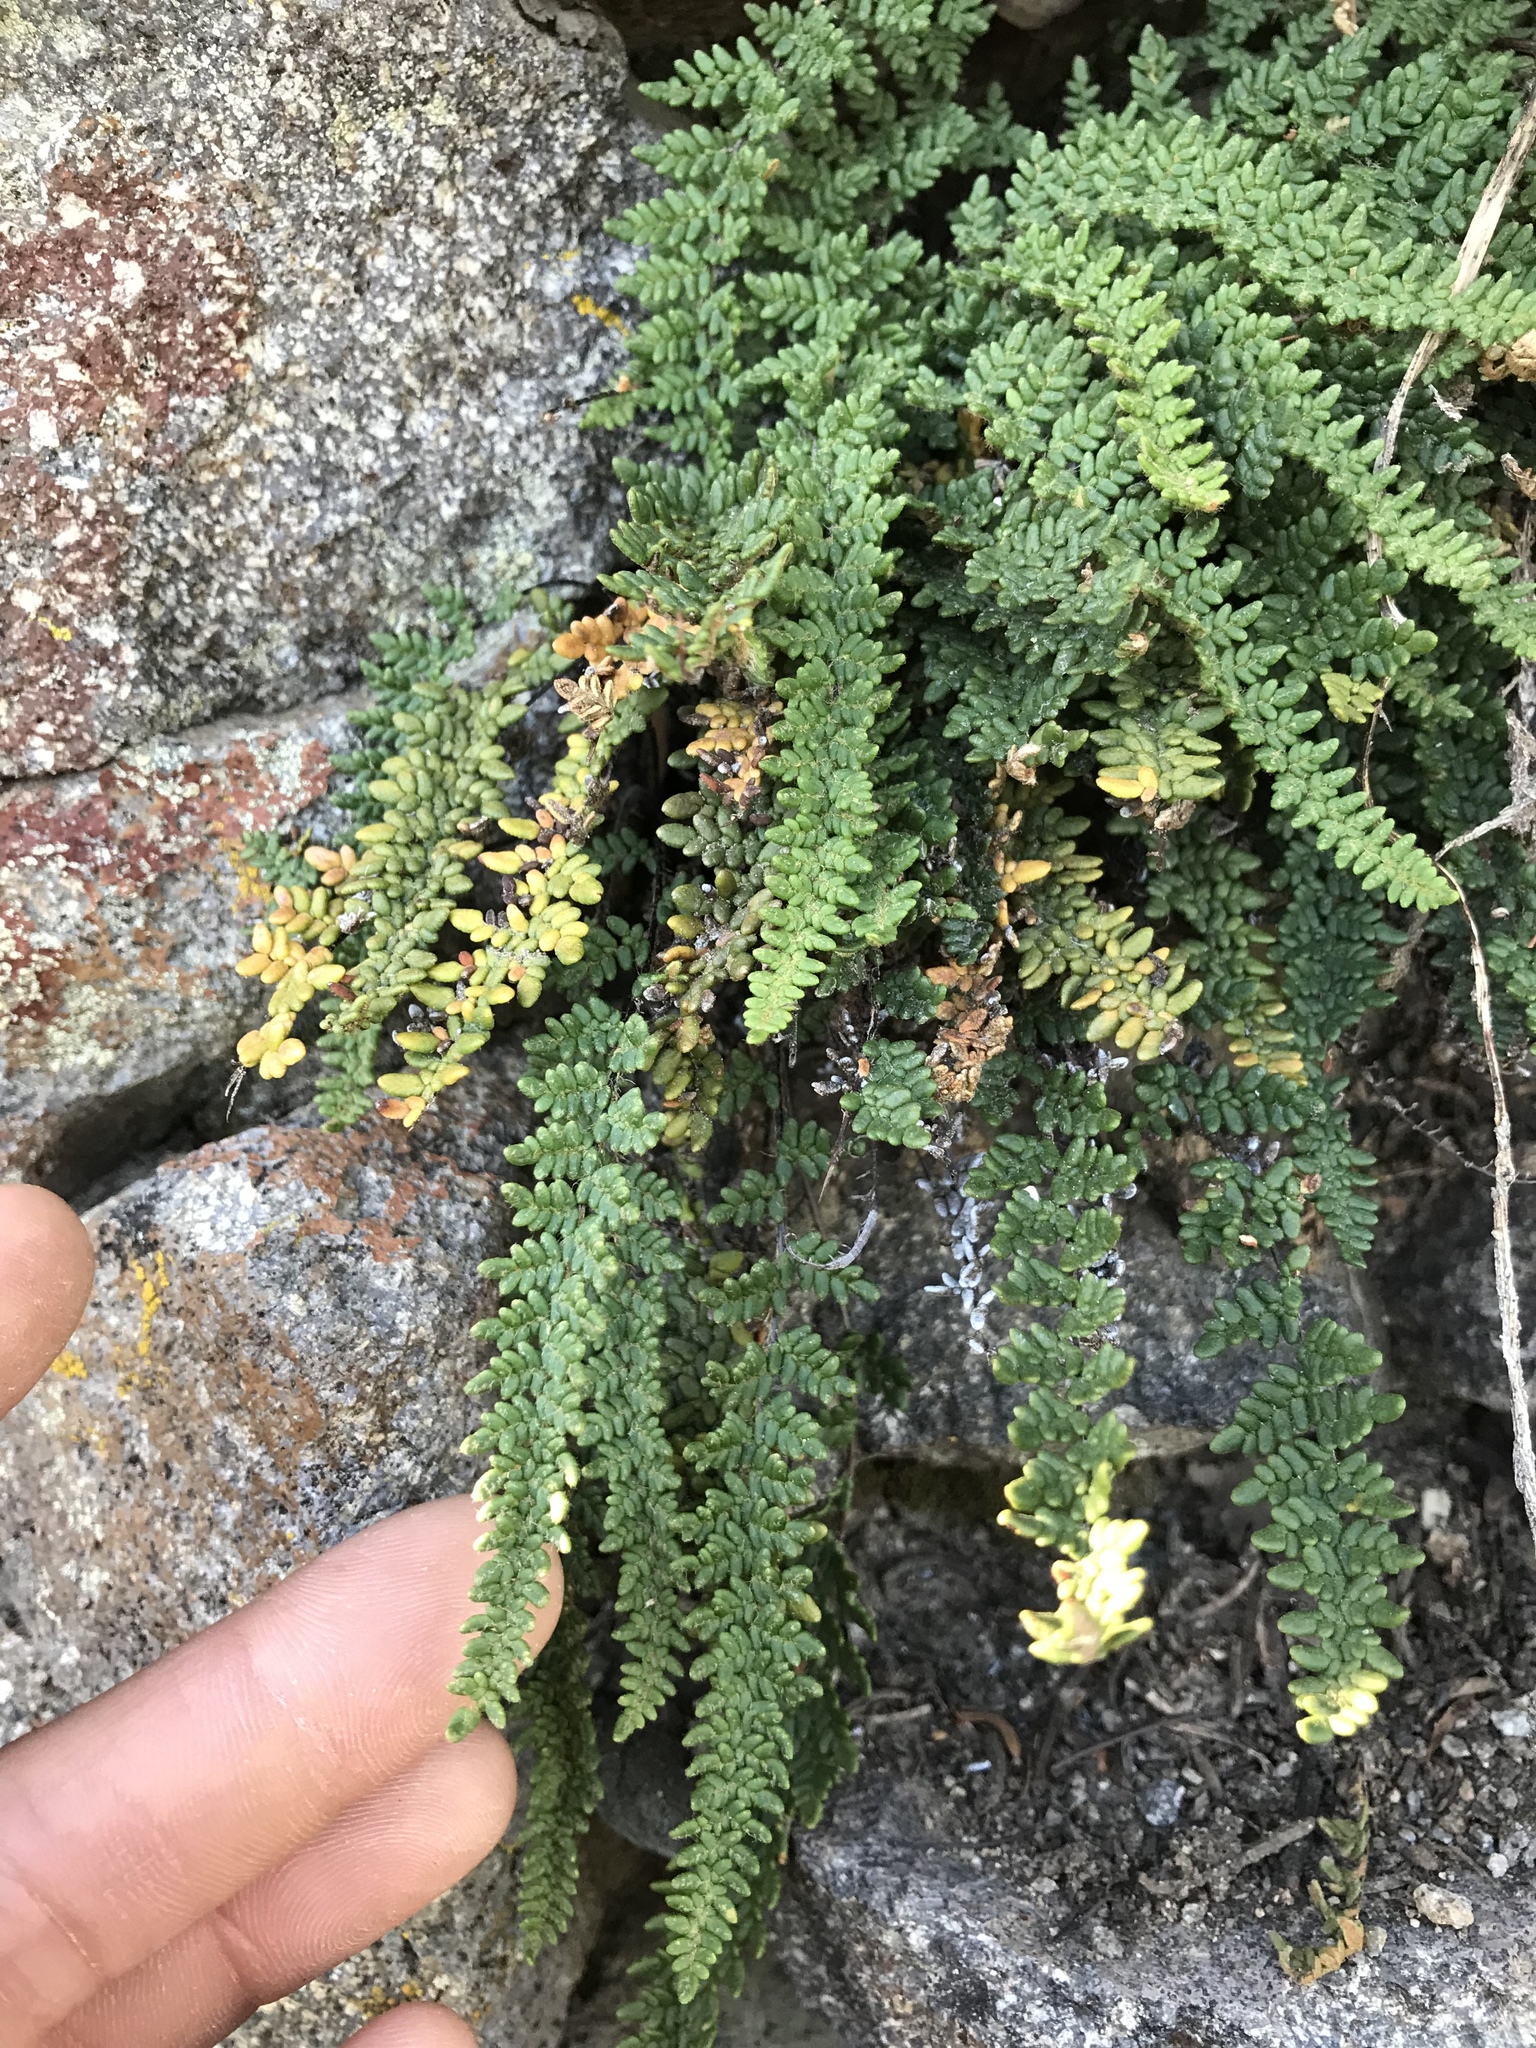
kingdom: Plantae
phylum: Tracheophyta
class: Polypodiopsida
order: Polypodiales
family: Pteridaceae
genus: Myriopteris
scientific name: Myriopteris gracillima
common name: Lace fern
